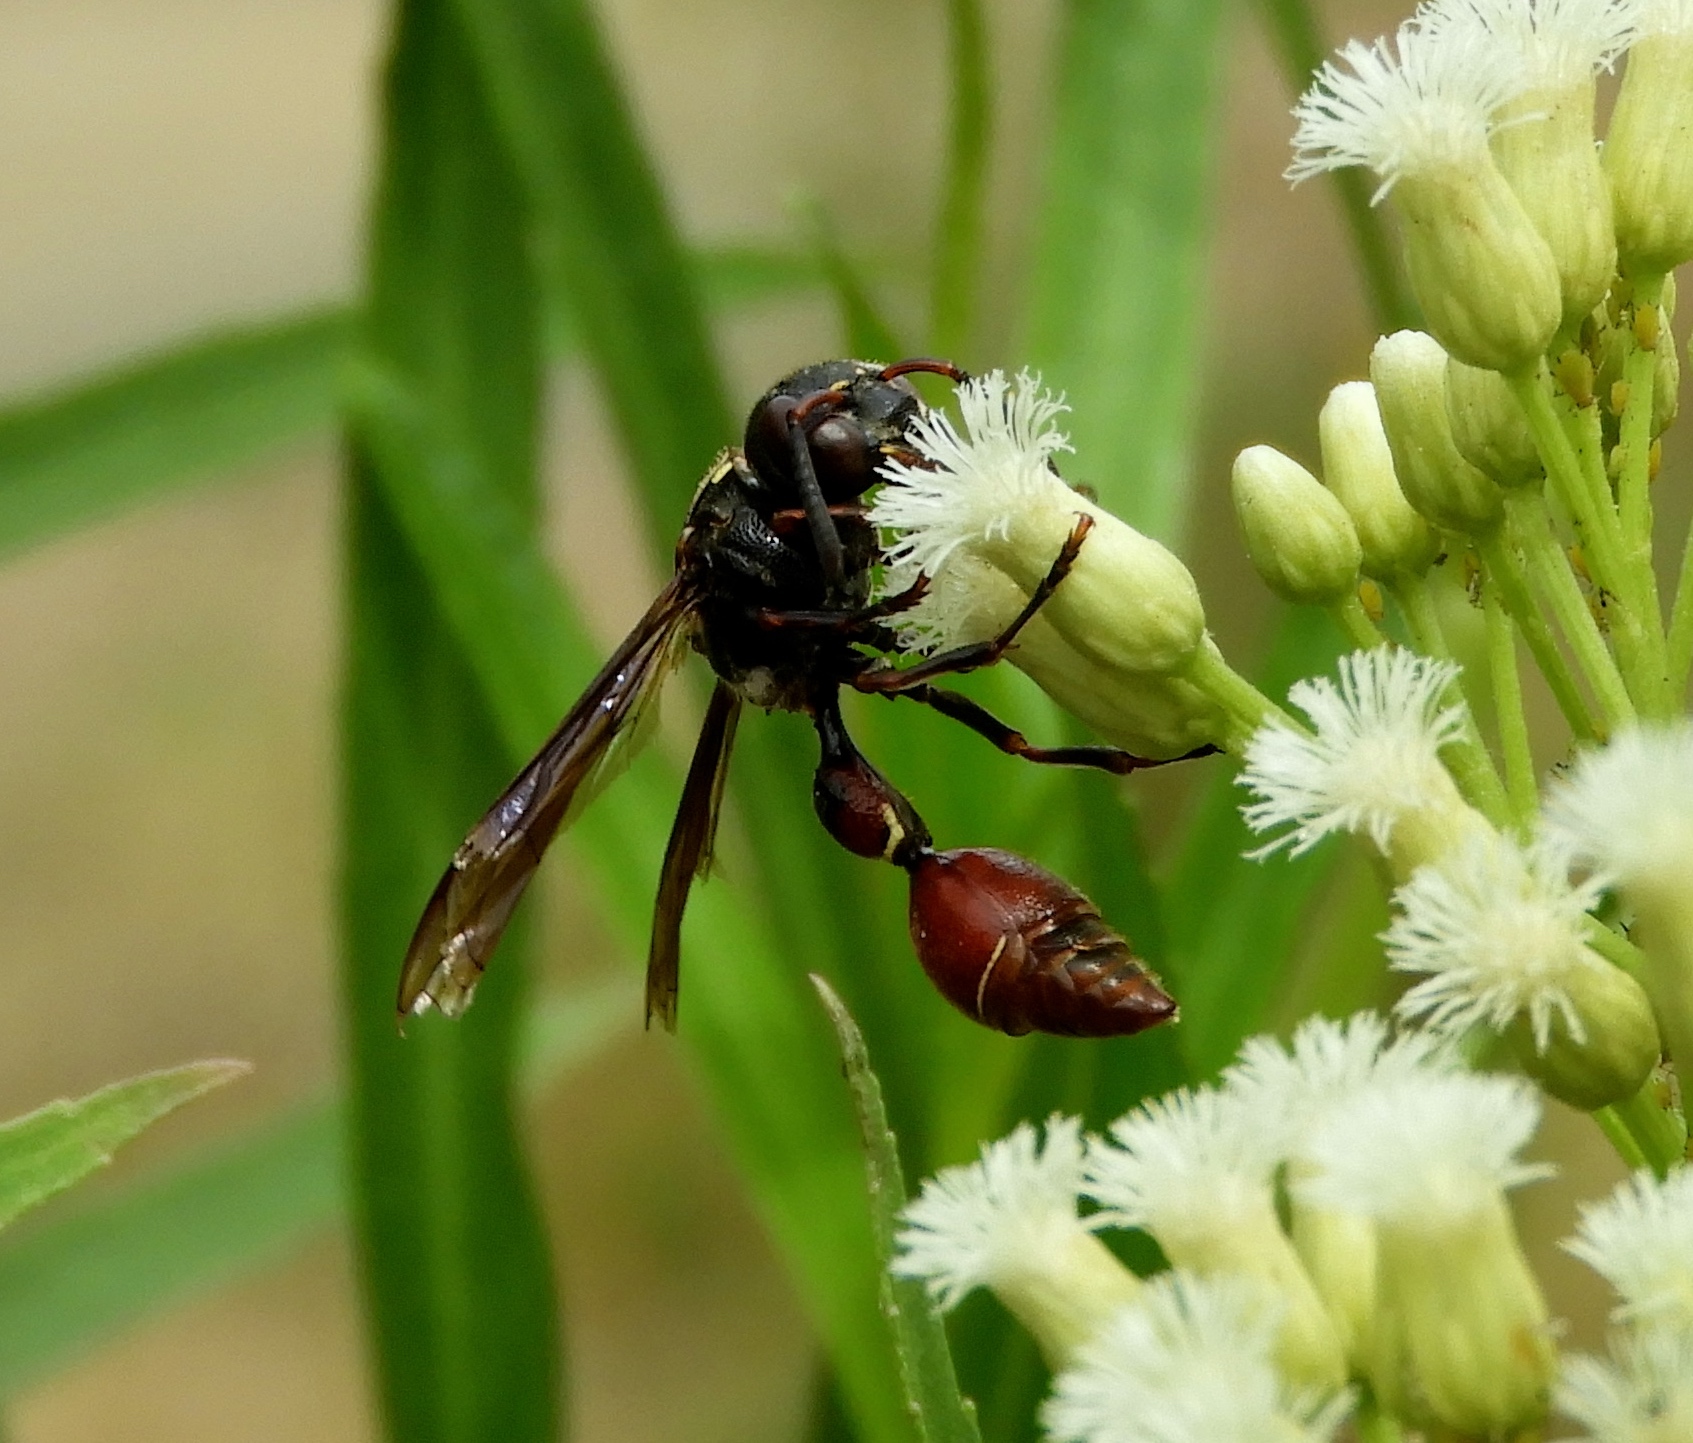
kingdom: Animalia
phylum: Arthropoda
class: Insecta
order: Hymenoptera
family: Eumenidae
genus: Zethus
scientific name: Zethus analis
